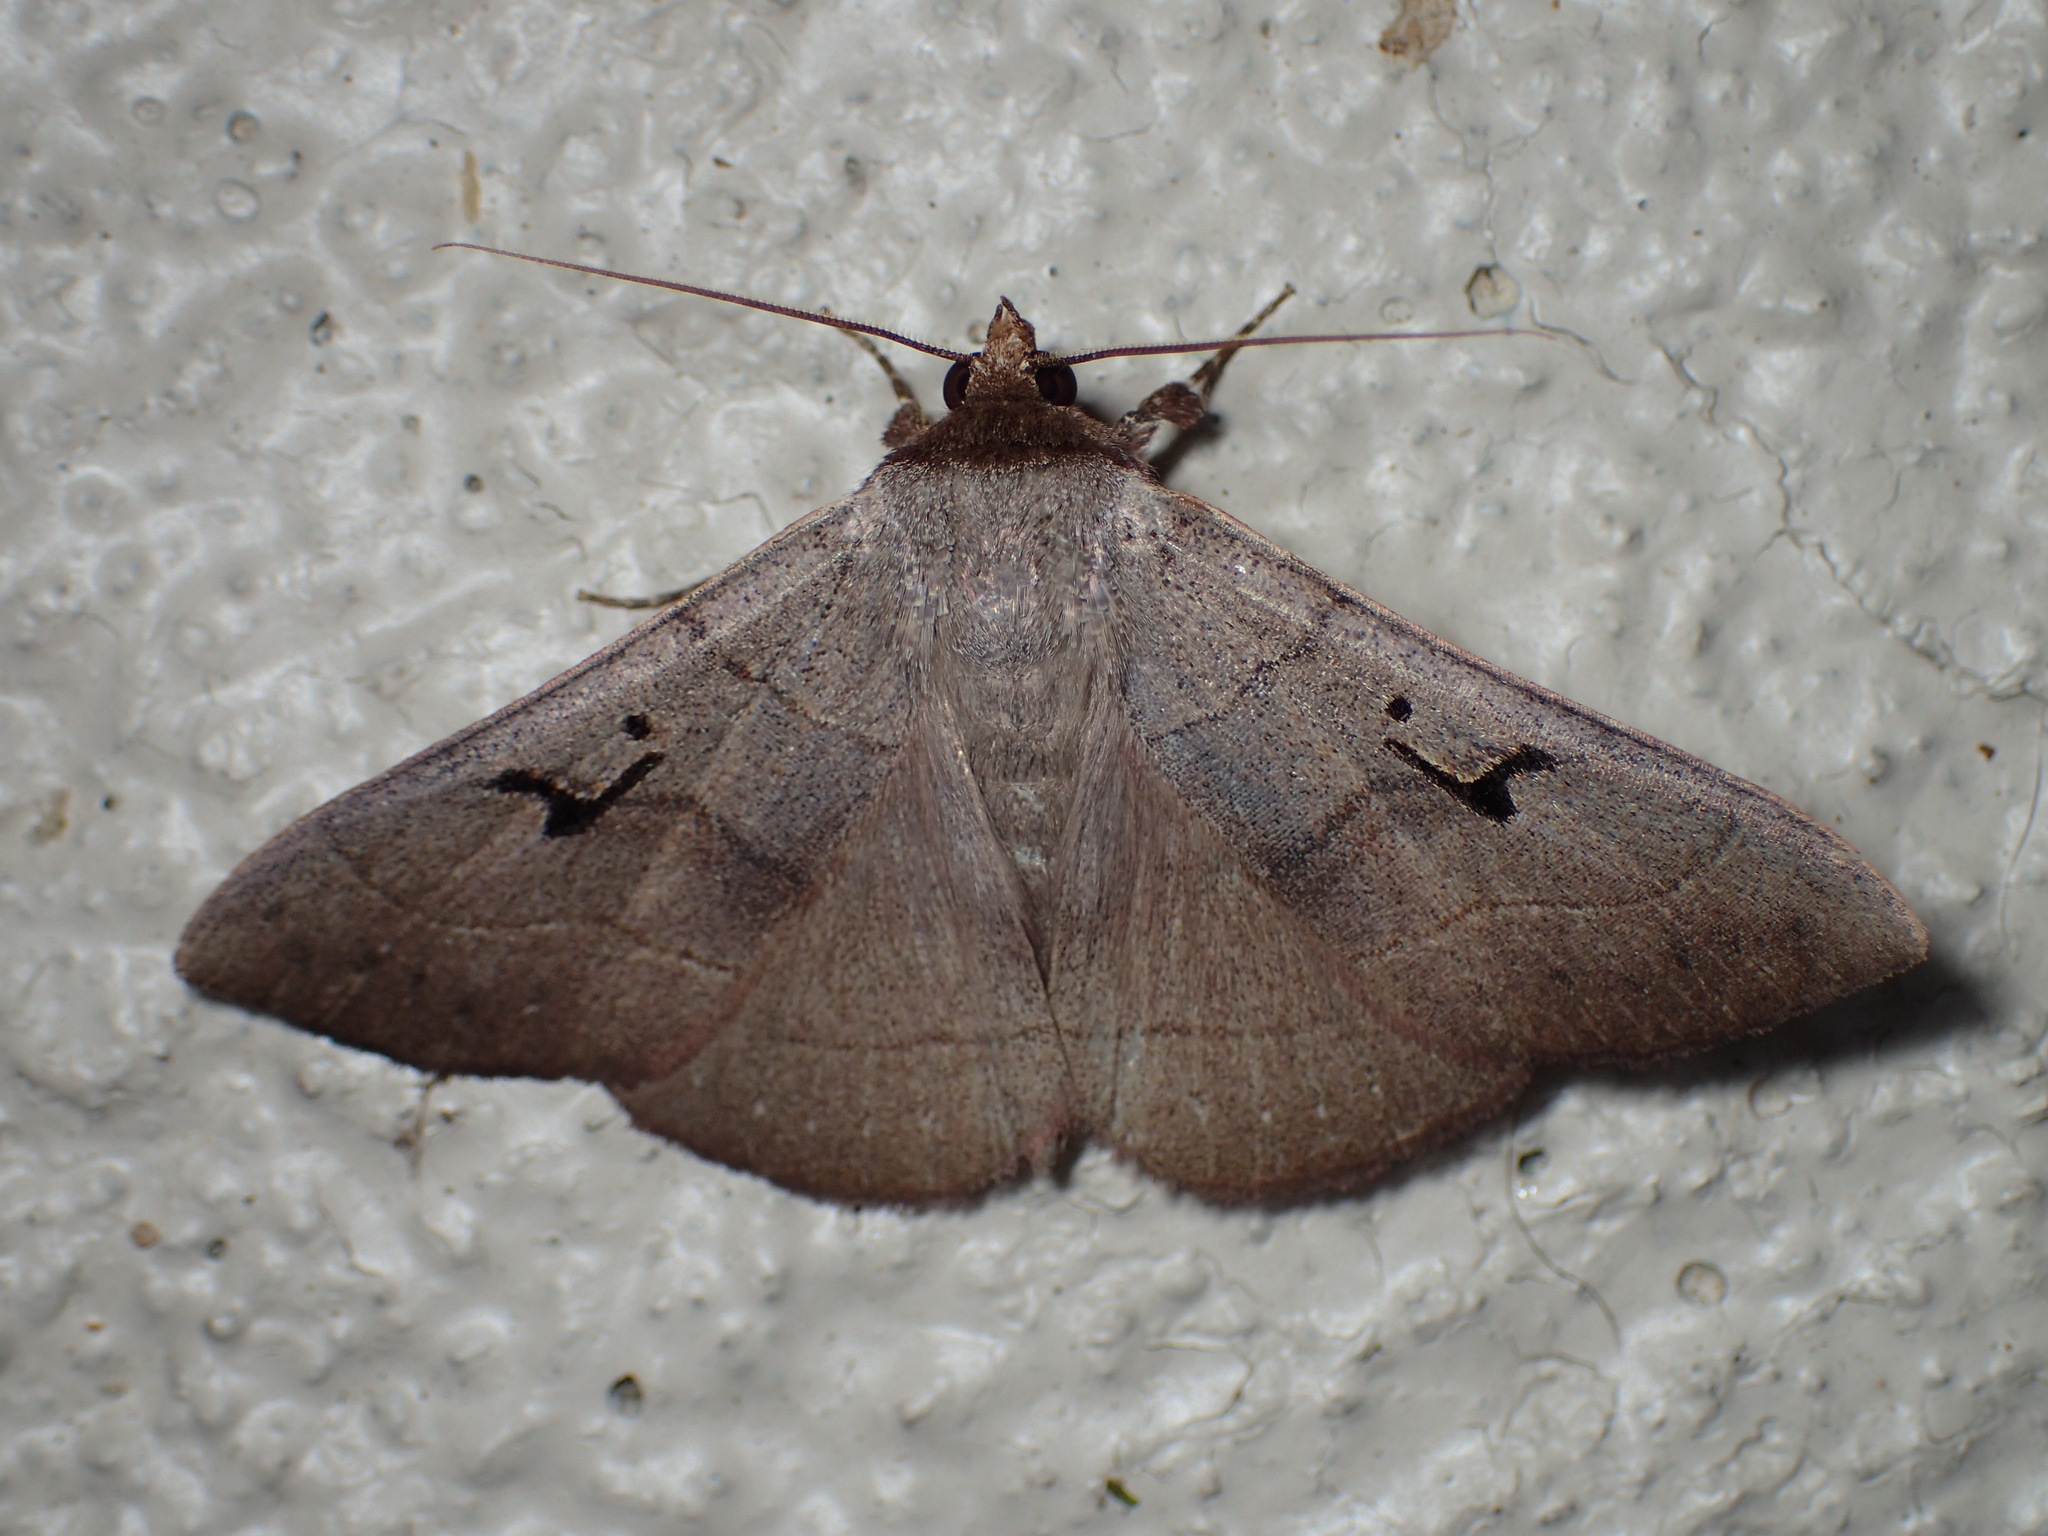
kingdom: Animalia
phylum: Arthropoda
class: Insecta
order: Lepidoptera
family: Erebidae
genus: Panopoda
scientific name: Panopoda carneicosta
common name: Brown panopoda moth
